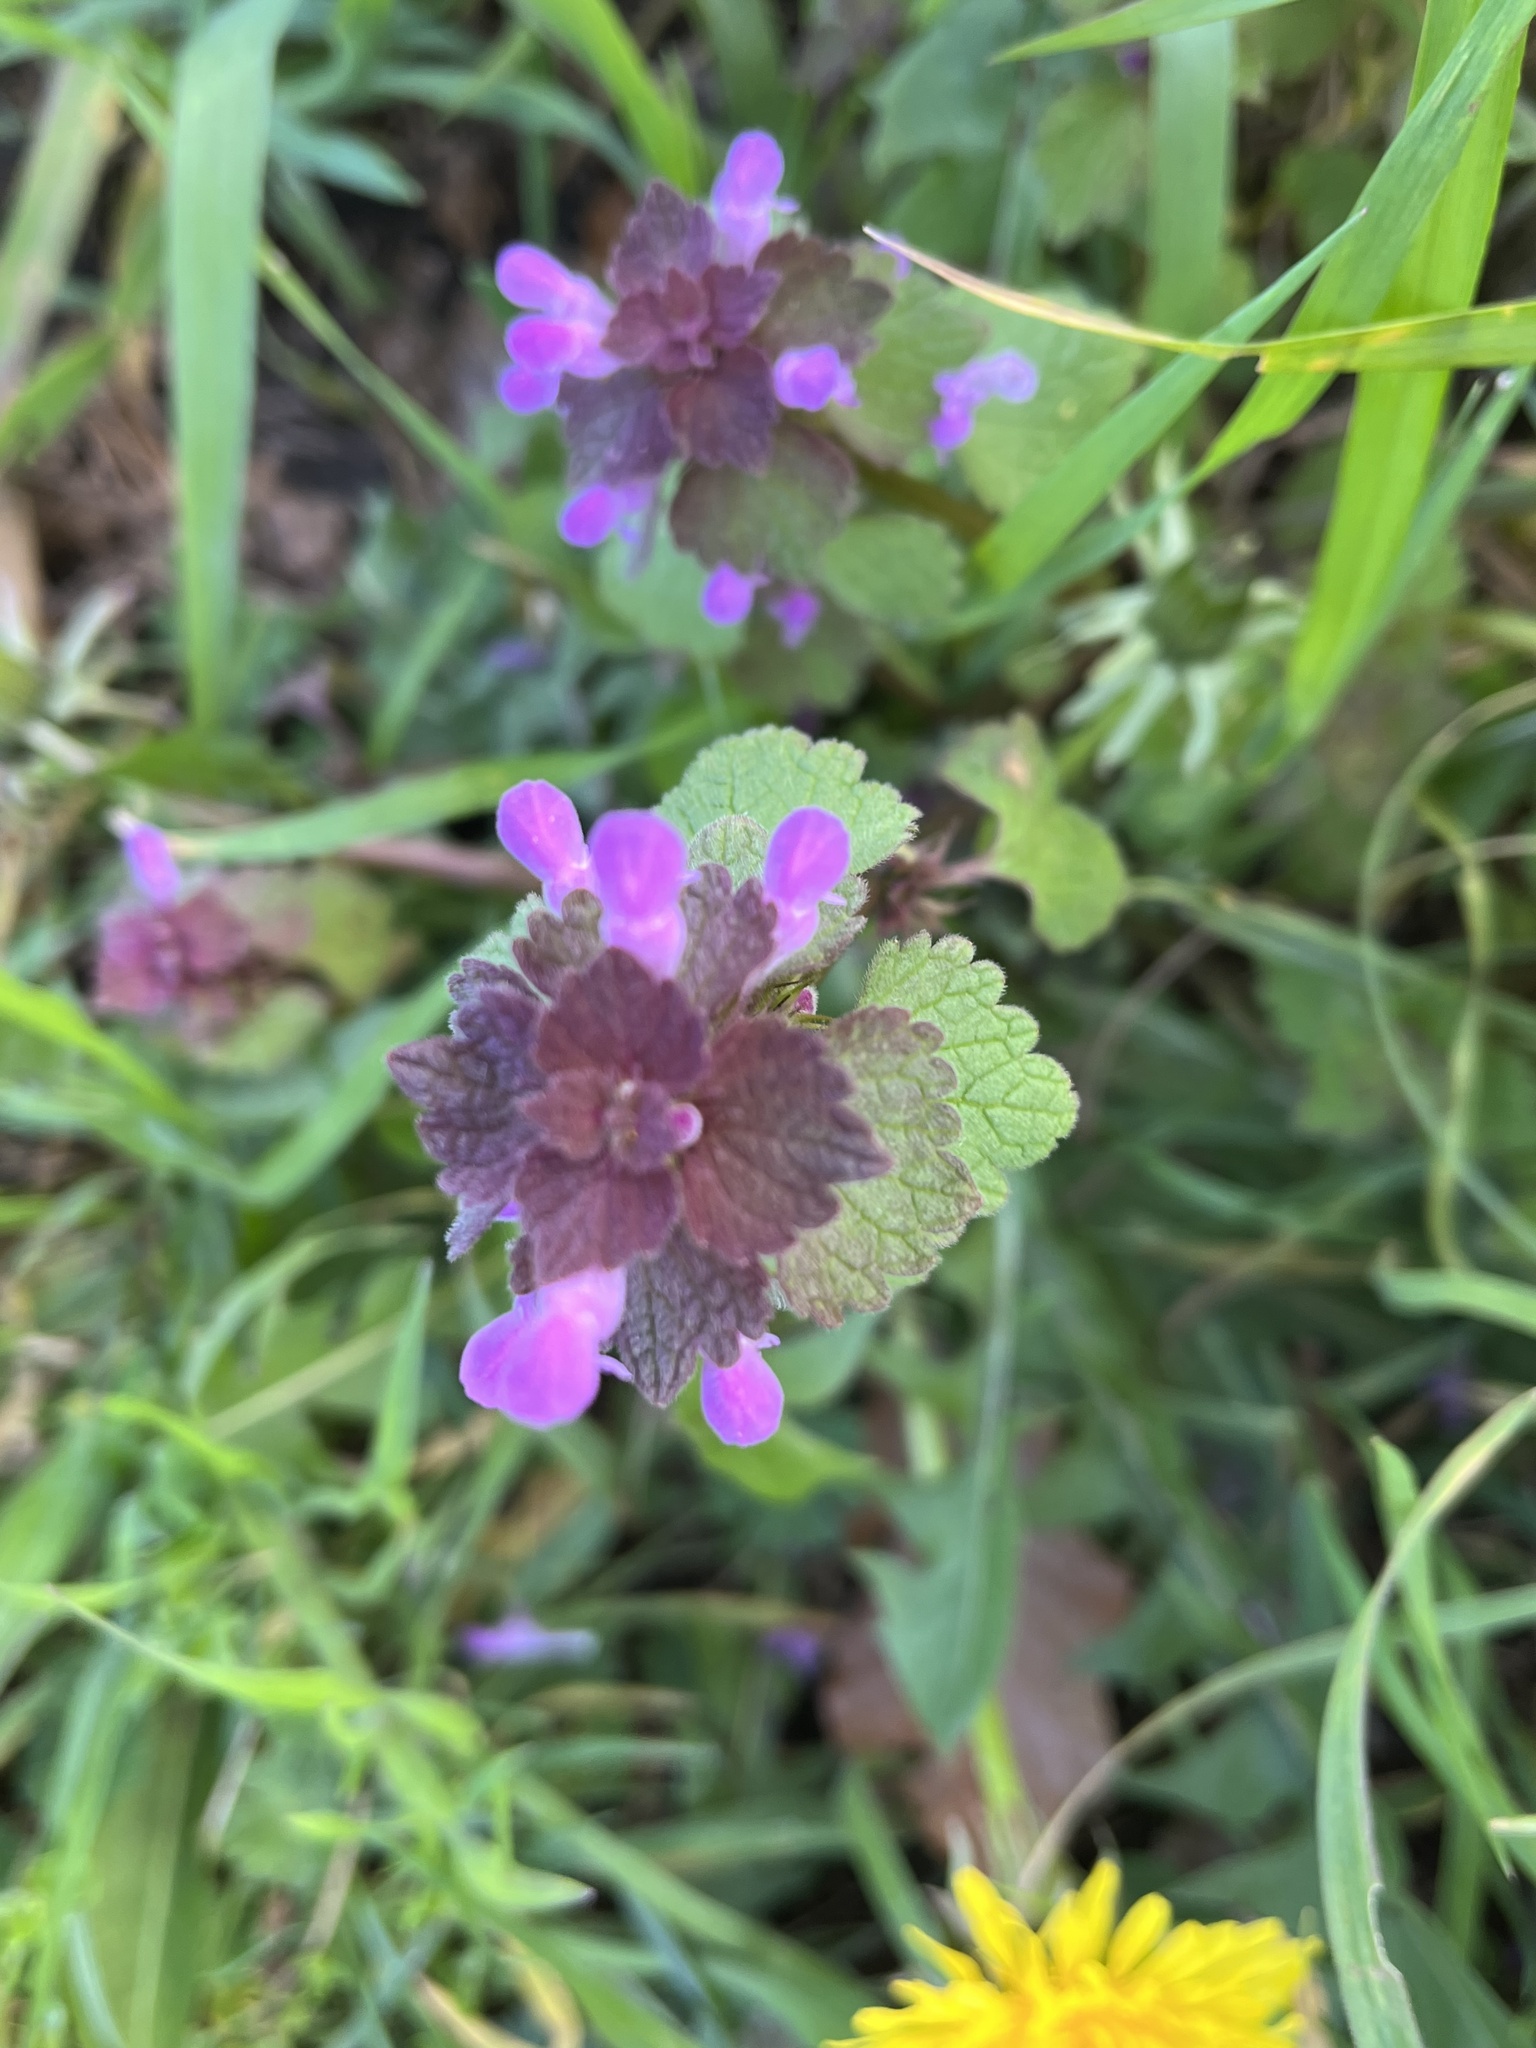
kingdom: Plantae
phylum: Tracheophyta
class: Magnoliopsida
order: Lamiales
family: Lamiaceae
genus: Lamium
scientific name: Lamium purpureum
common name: Red dead-nettle
